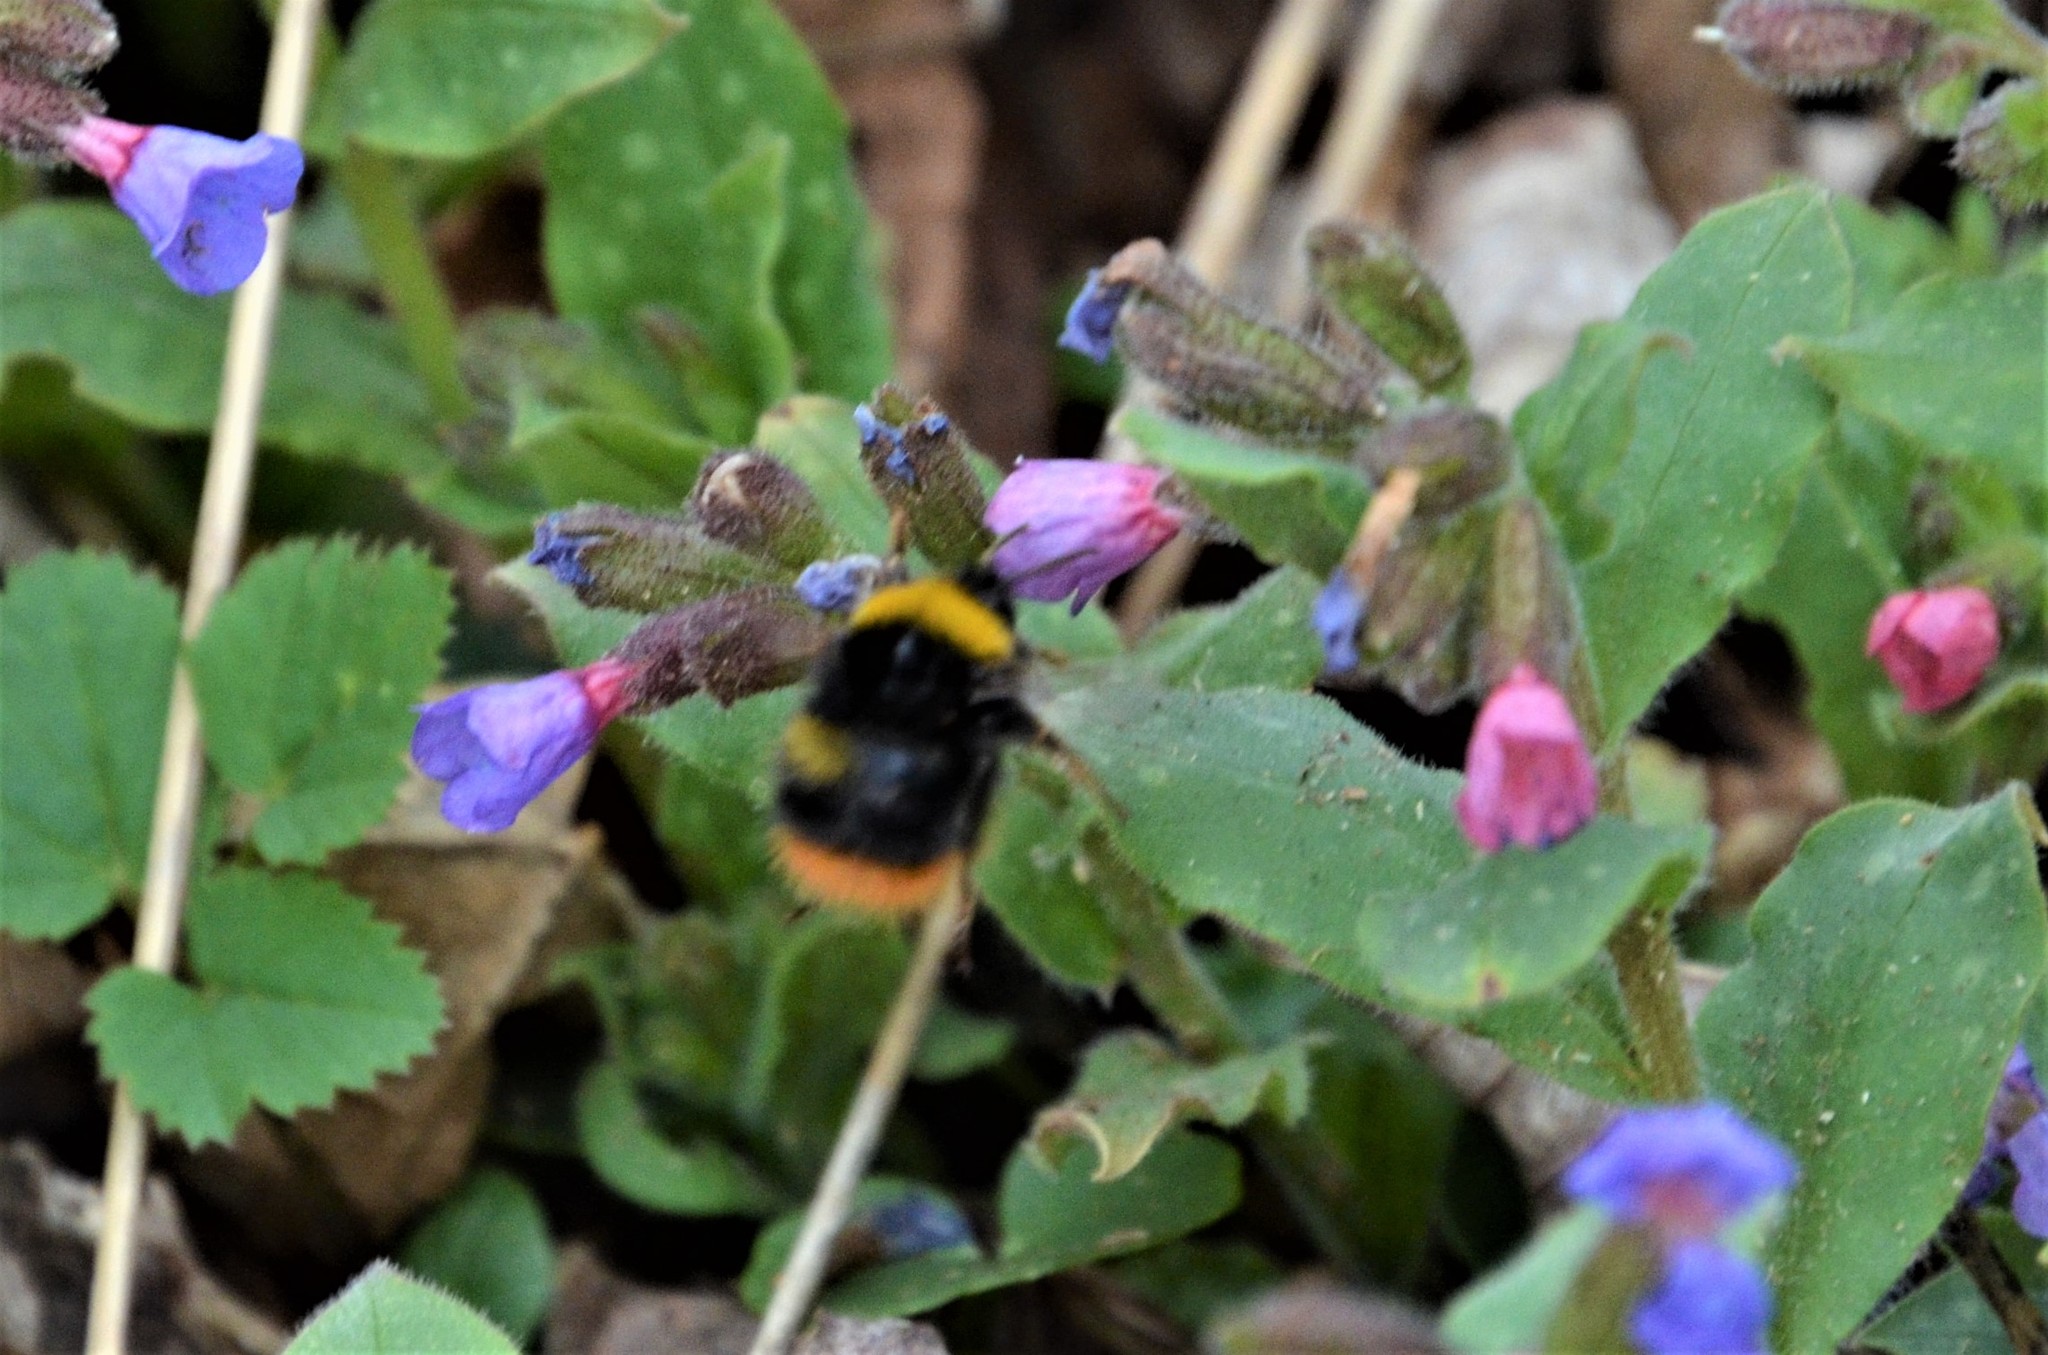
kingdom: Animalia
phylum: Arthropoda
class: Insecta
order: Hymenoptera
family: Apidae
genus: Bombus
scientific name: Bombus pratorum
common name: Early humble-bee
